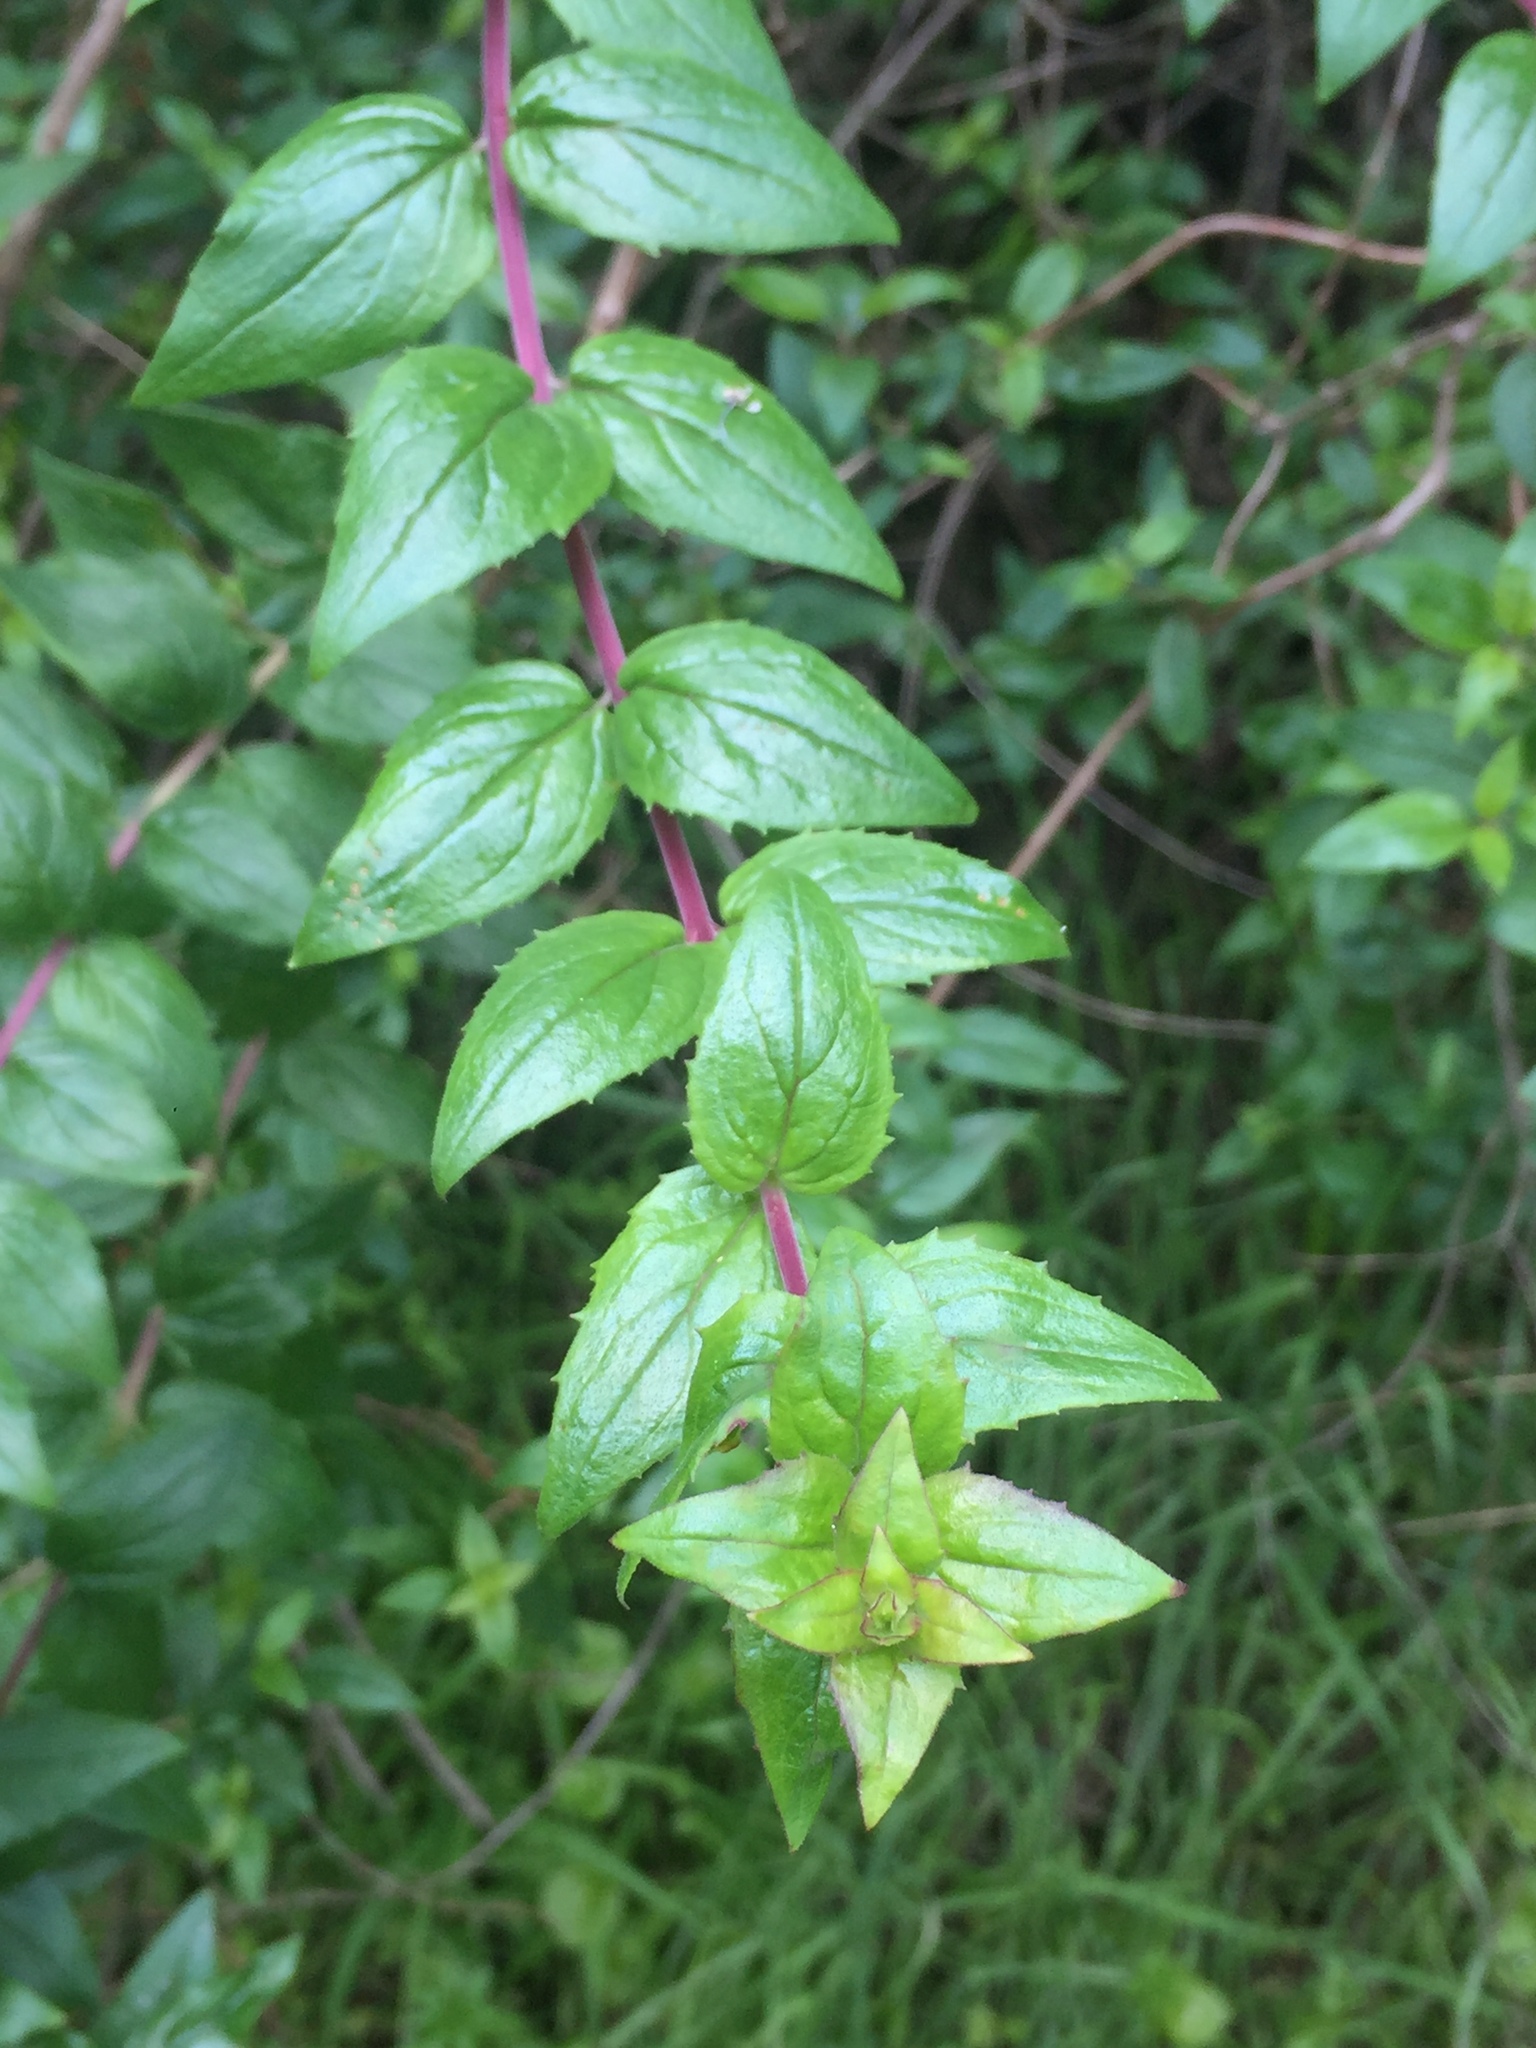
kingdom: Plantae
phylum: Tracheophyta
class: Magnoliopsida
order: Lamiales
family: Plantaginaceae
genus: Keckiella
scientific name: Keckiella cordifolia
